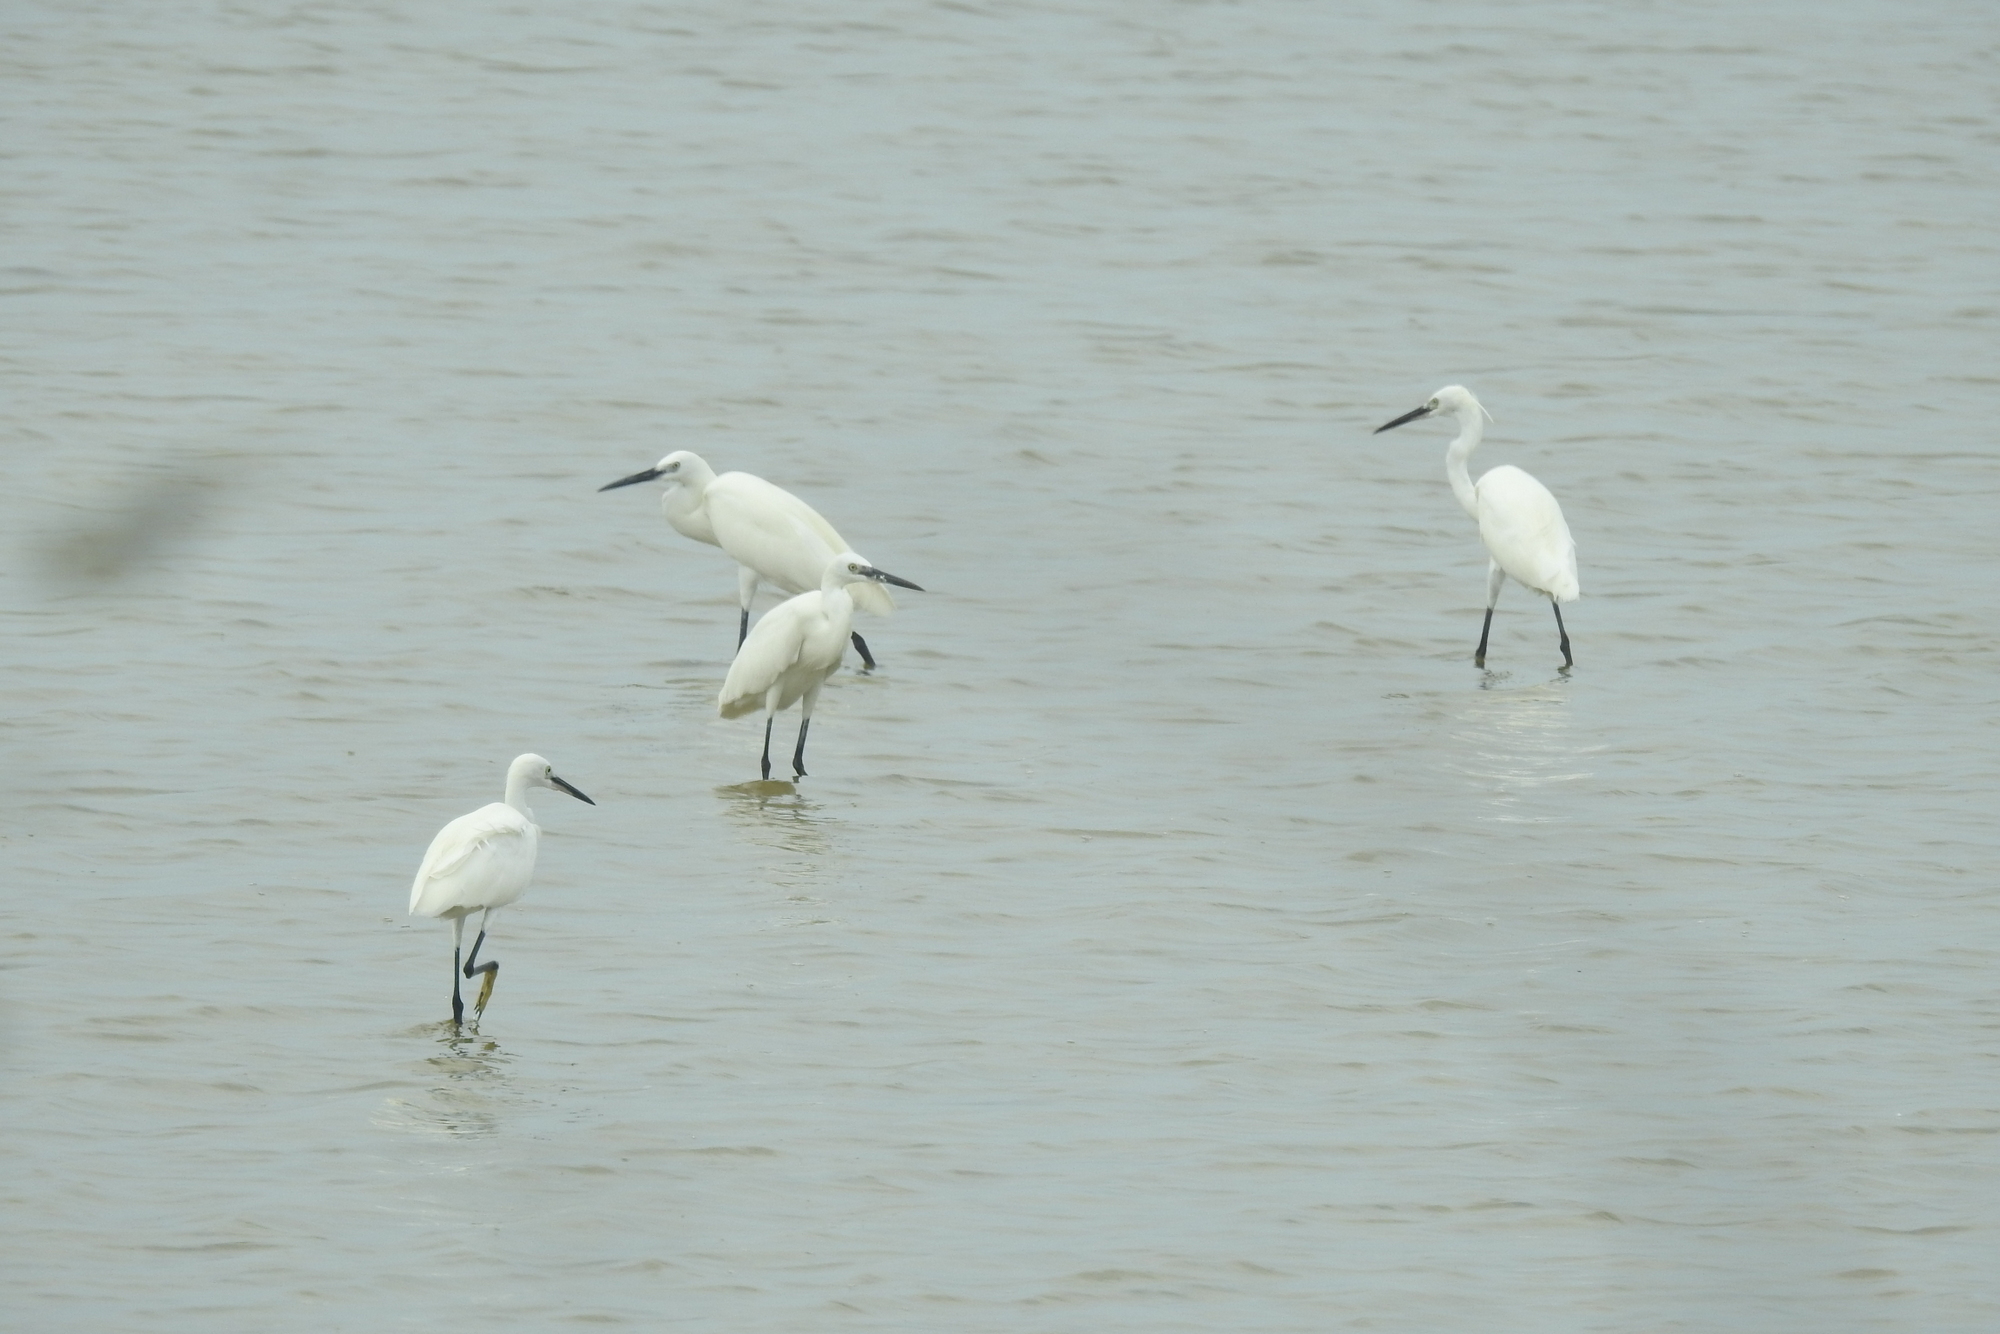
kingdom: Animalia
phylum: Chordata
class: Aves
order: Pelecaniformes
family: Ardeidae
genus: Egretta
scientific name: Egretta garzetta
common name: Little egret
